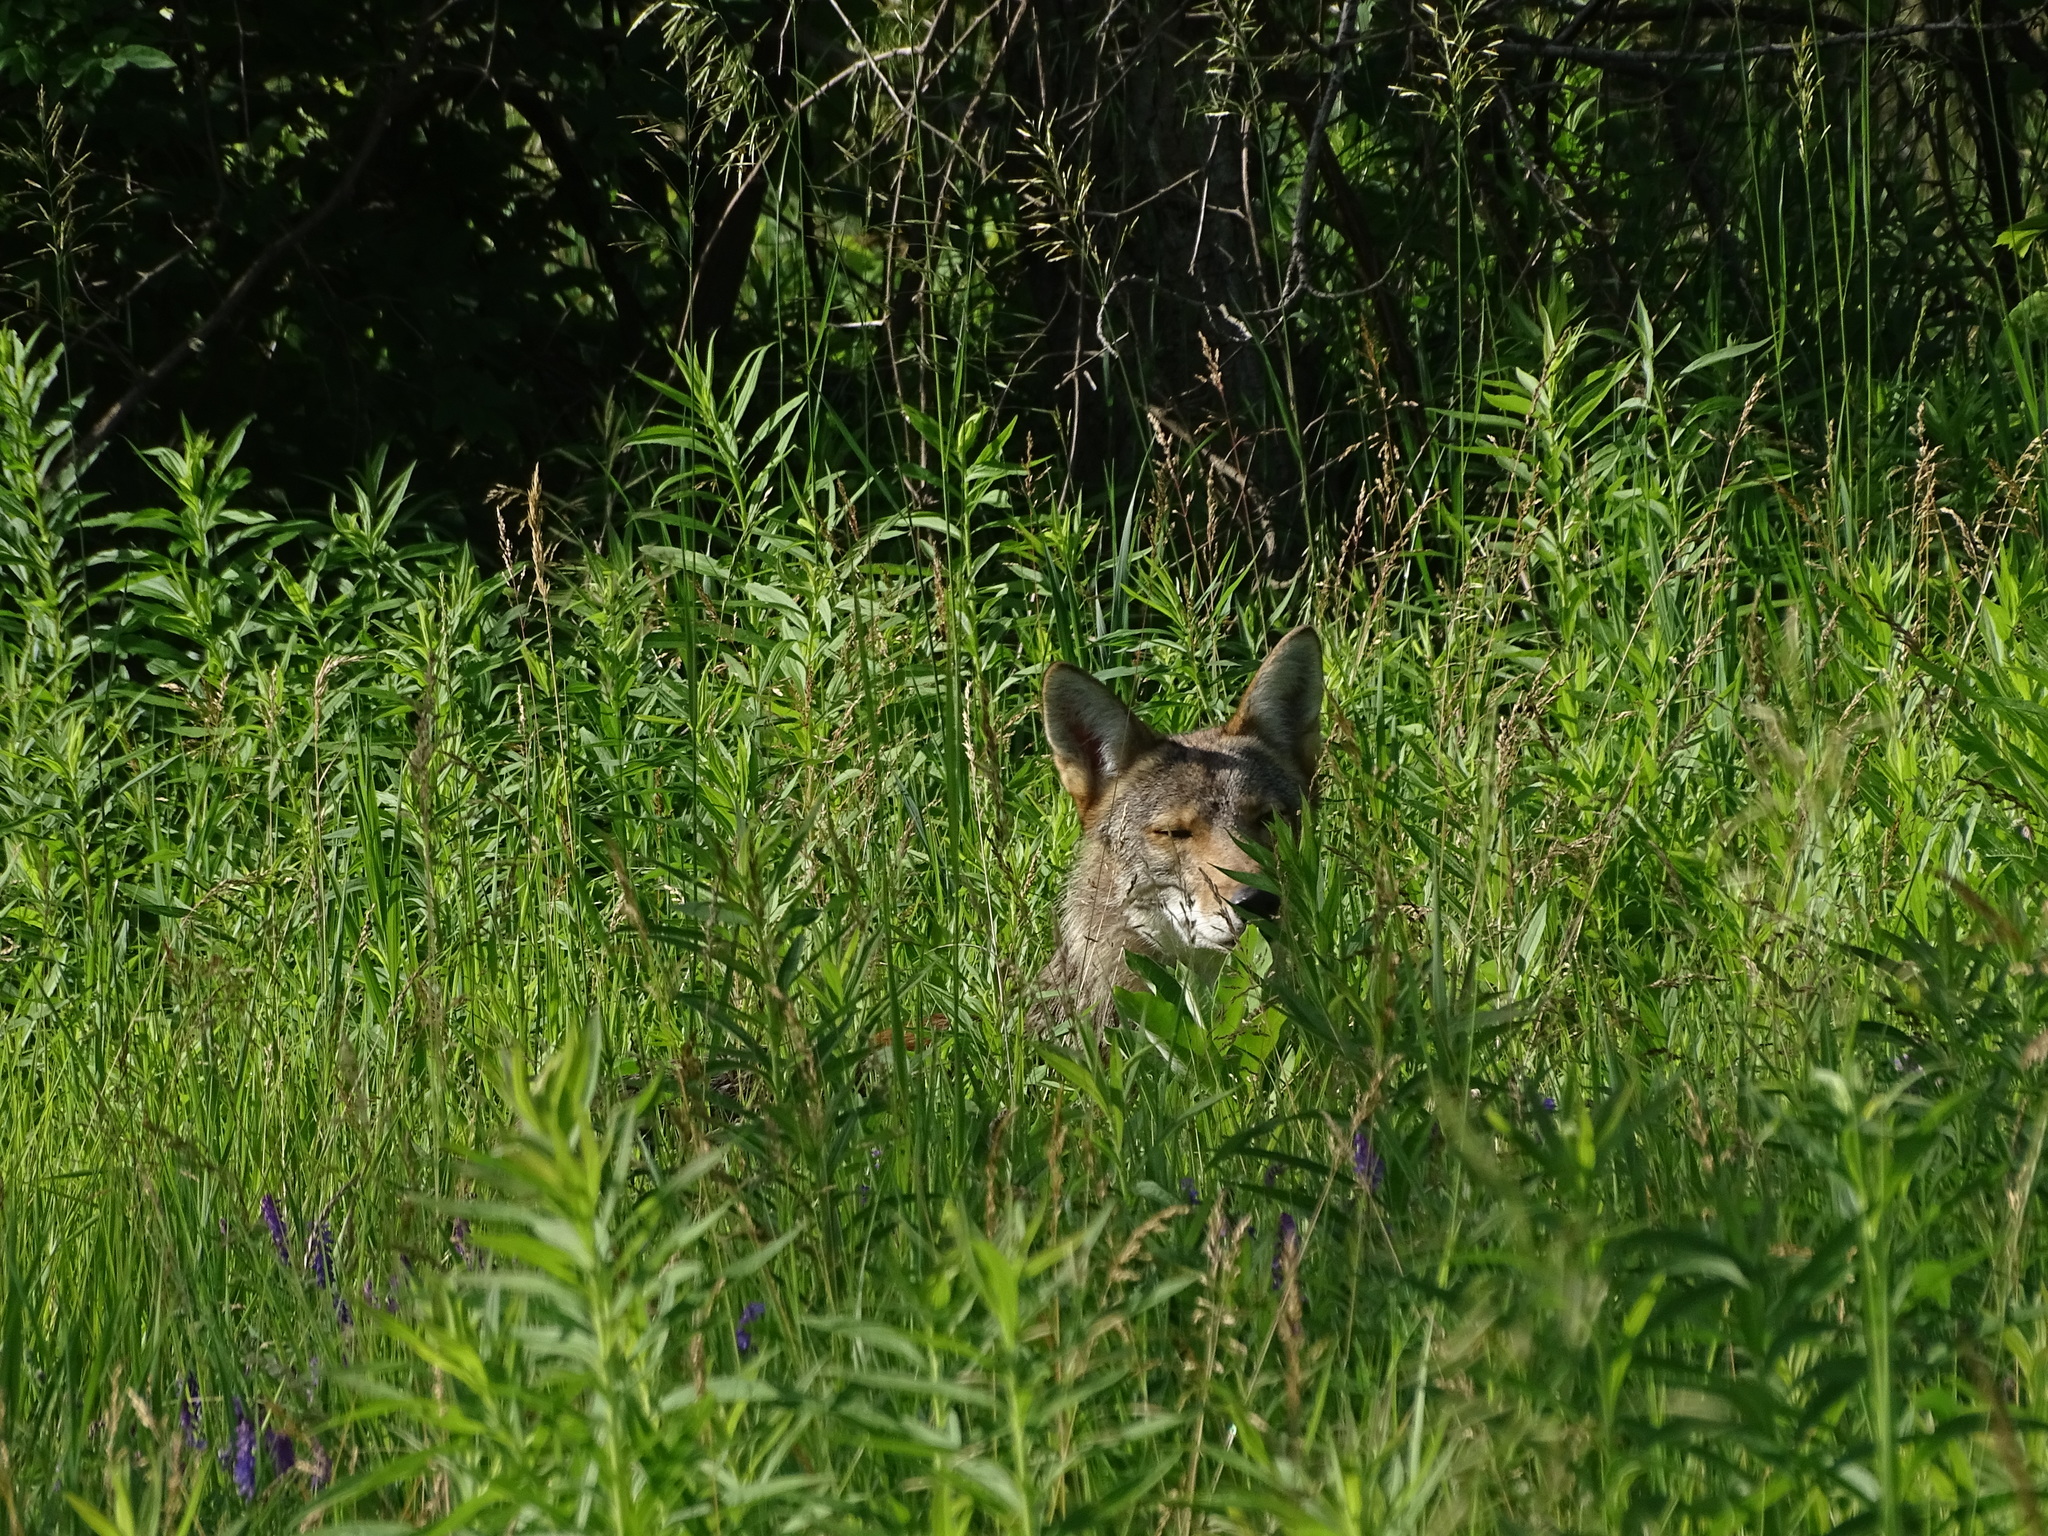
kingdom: Animalia
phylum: Chordata
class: Mammalia
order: Carnivora
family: Canidae
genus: Canis
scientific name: Canis latrans
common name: Coyote
